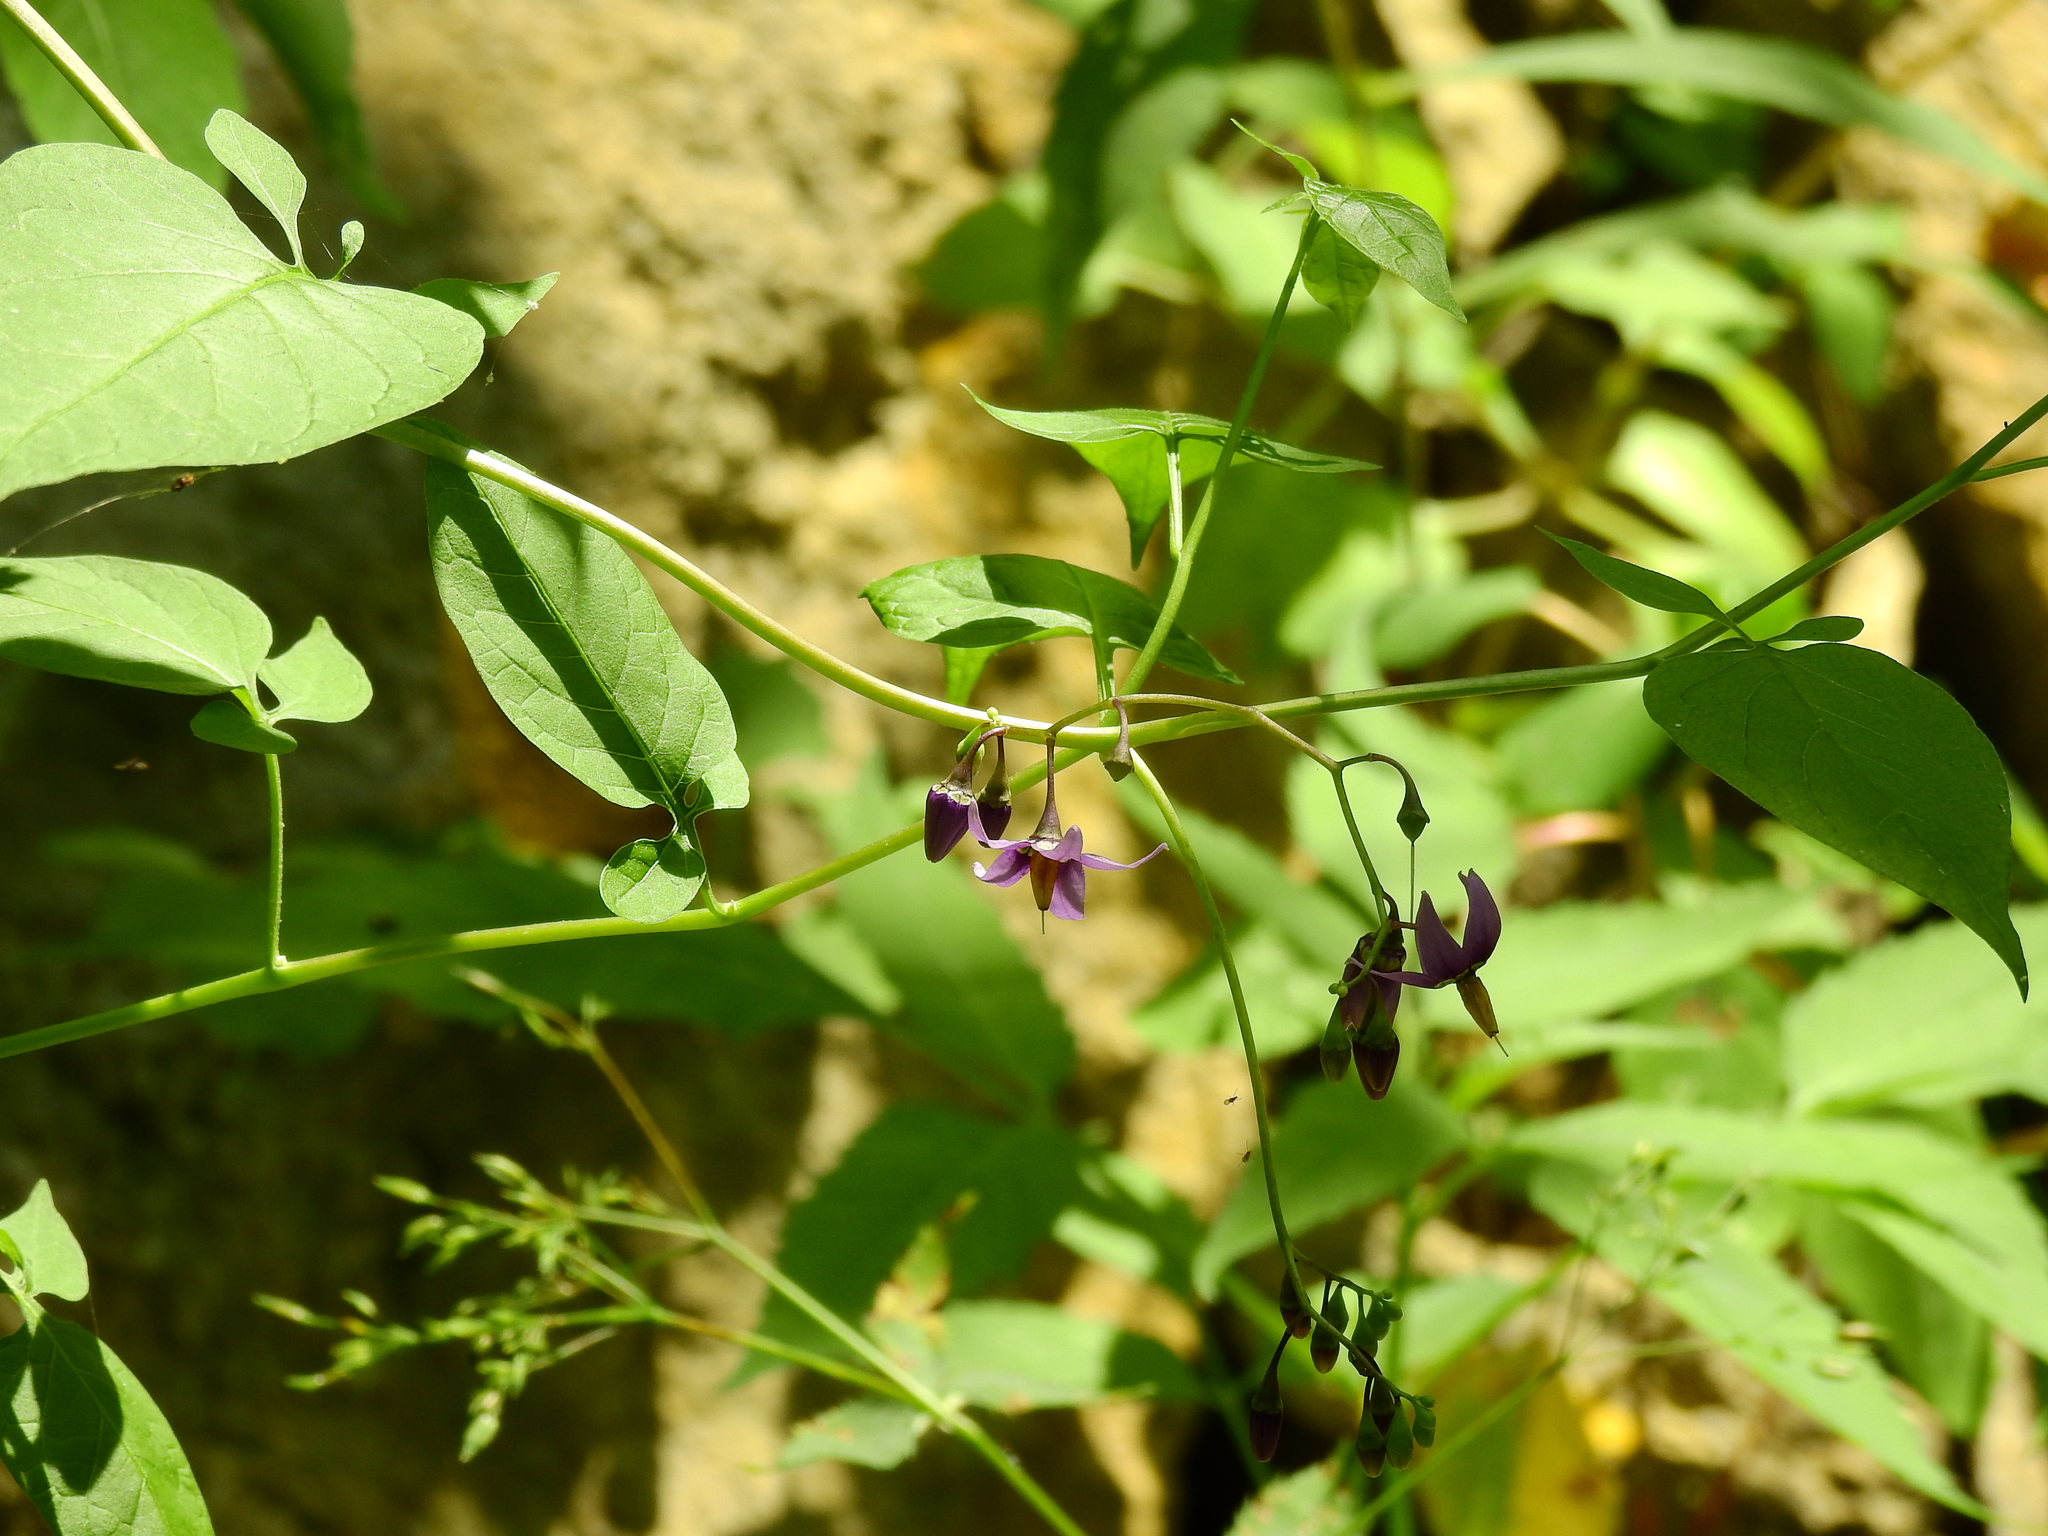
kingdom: Plantae
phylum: Tracheophyta
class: Magnoliopsida
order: Solanales
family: Solanaceae
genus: Solanum
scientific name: Solanum dulcamara
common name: Climbing nightshade
